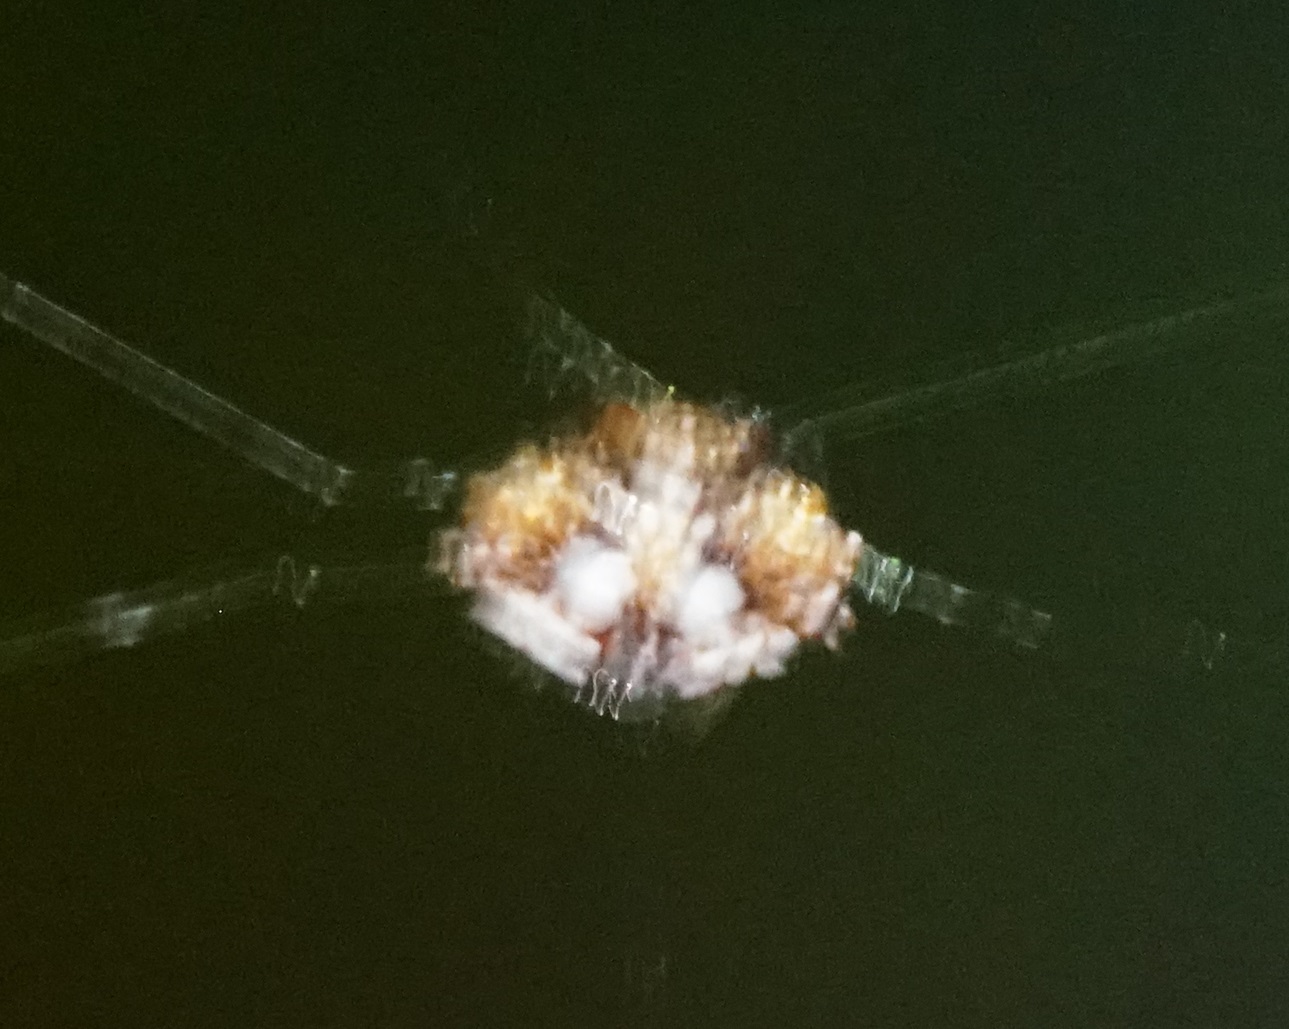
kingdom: Animalia
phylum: Arthropoda
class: Arachnida
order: Araneae
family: Araneidae
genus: Thelacantha
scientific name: Thelacantha brevispina
